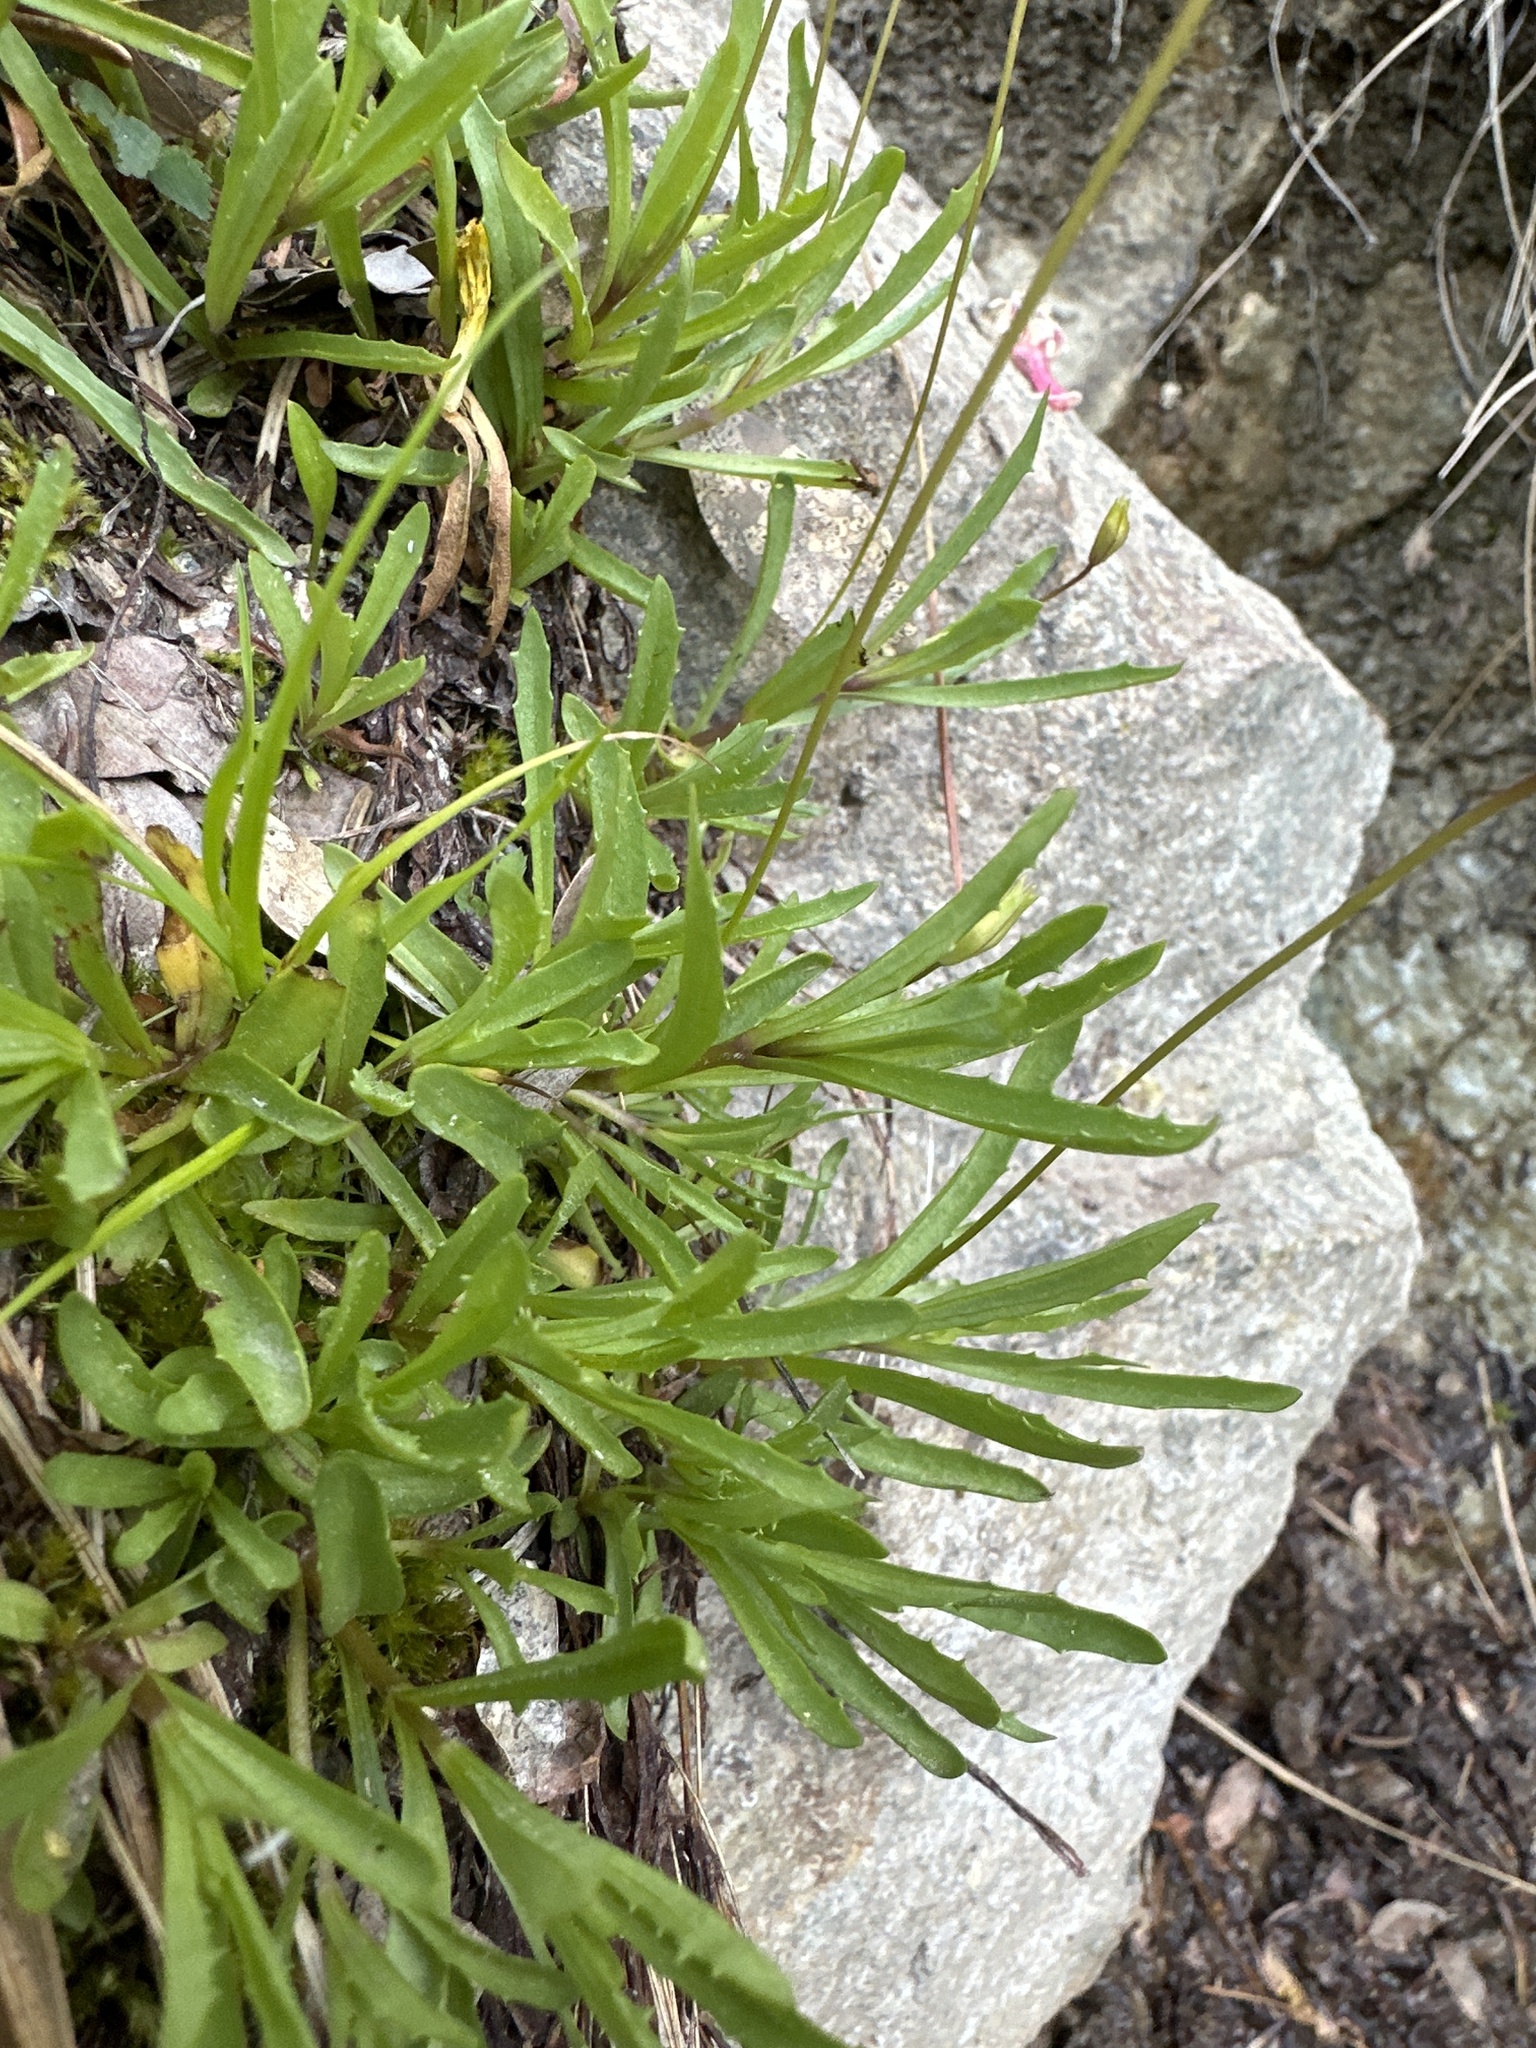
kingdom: Plantae
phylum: Tracheophyta
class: Magnoliopsida
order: Lamiales
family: Phrymaceae
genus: Erythranthe
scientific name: Erythranthe linearifolia
